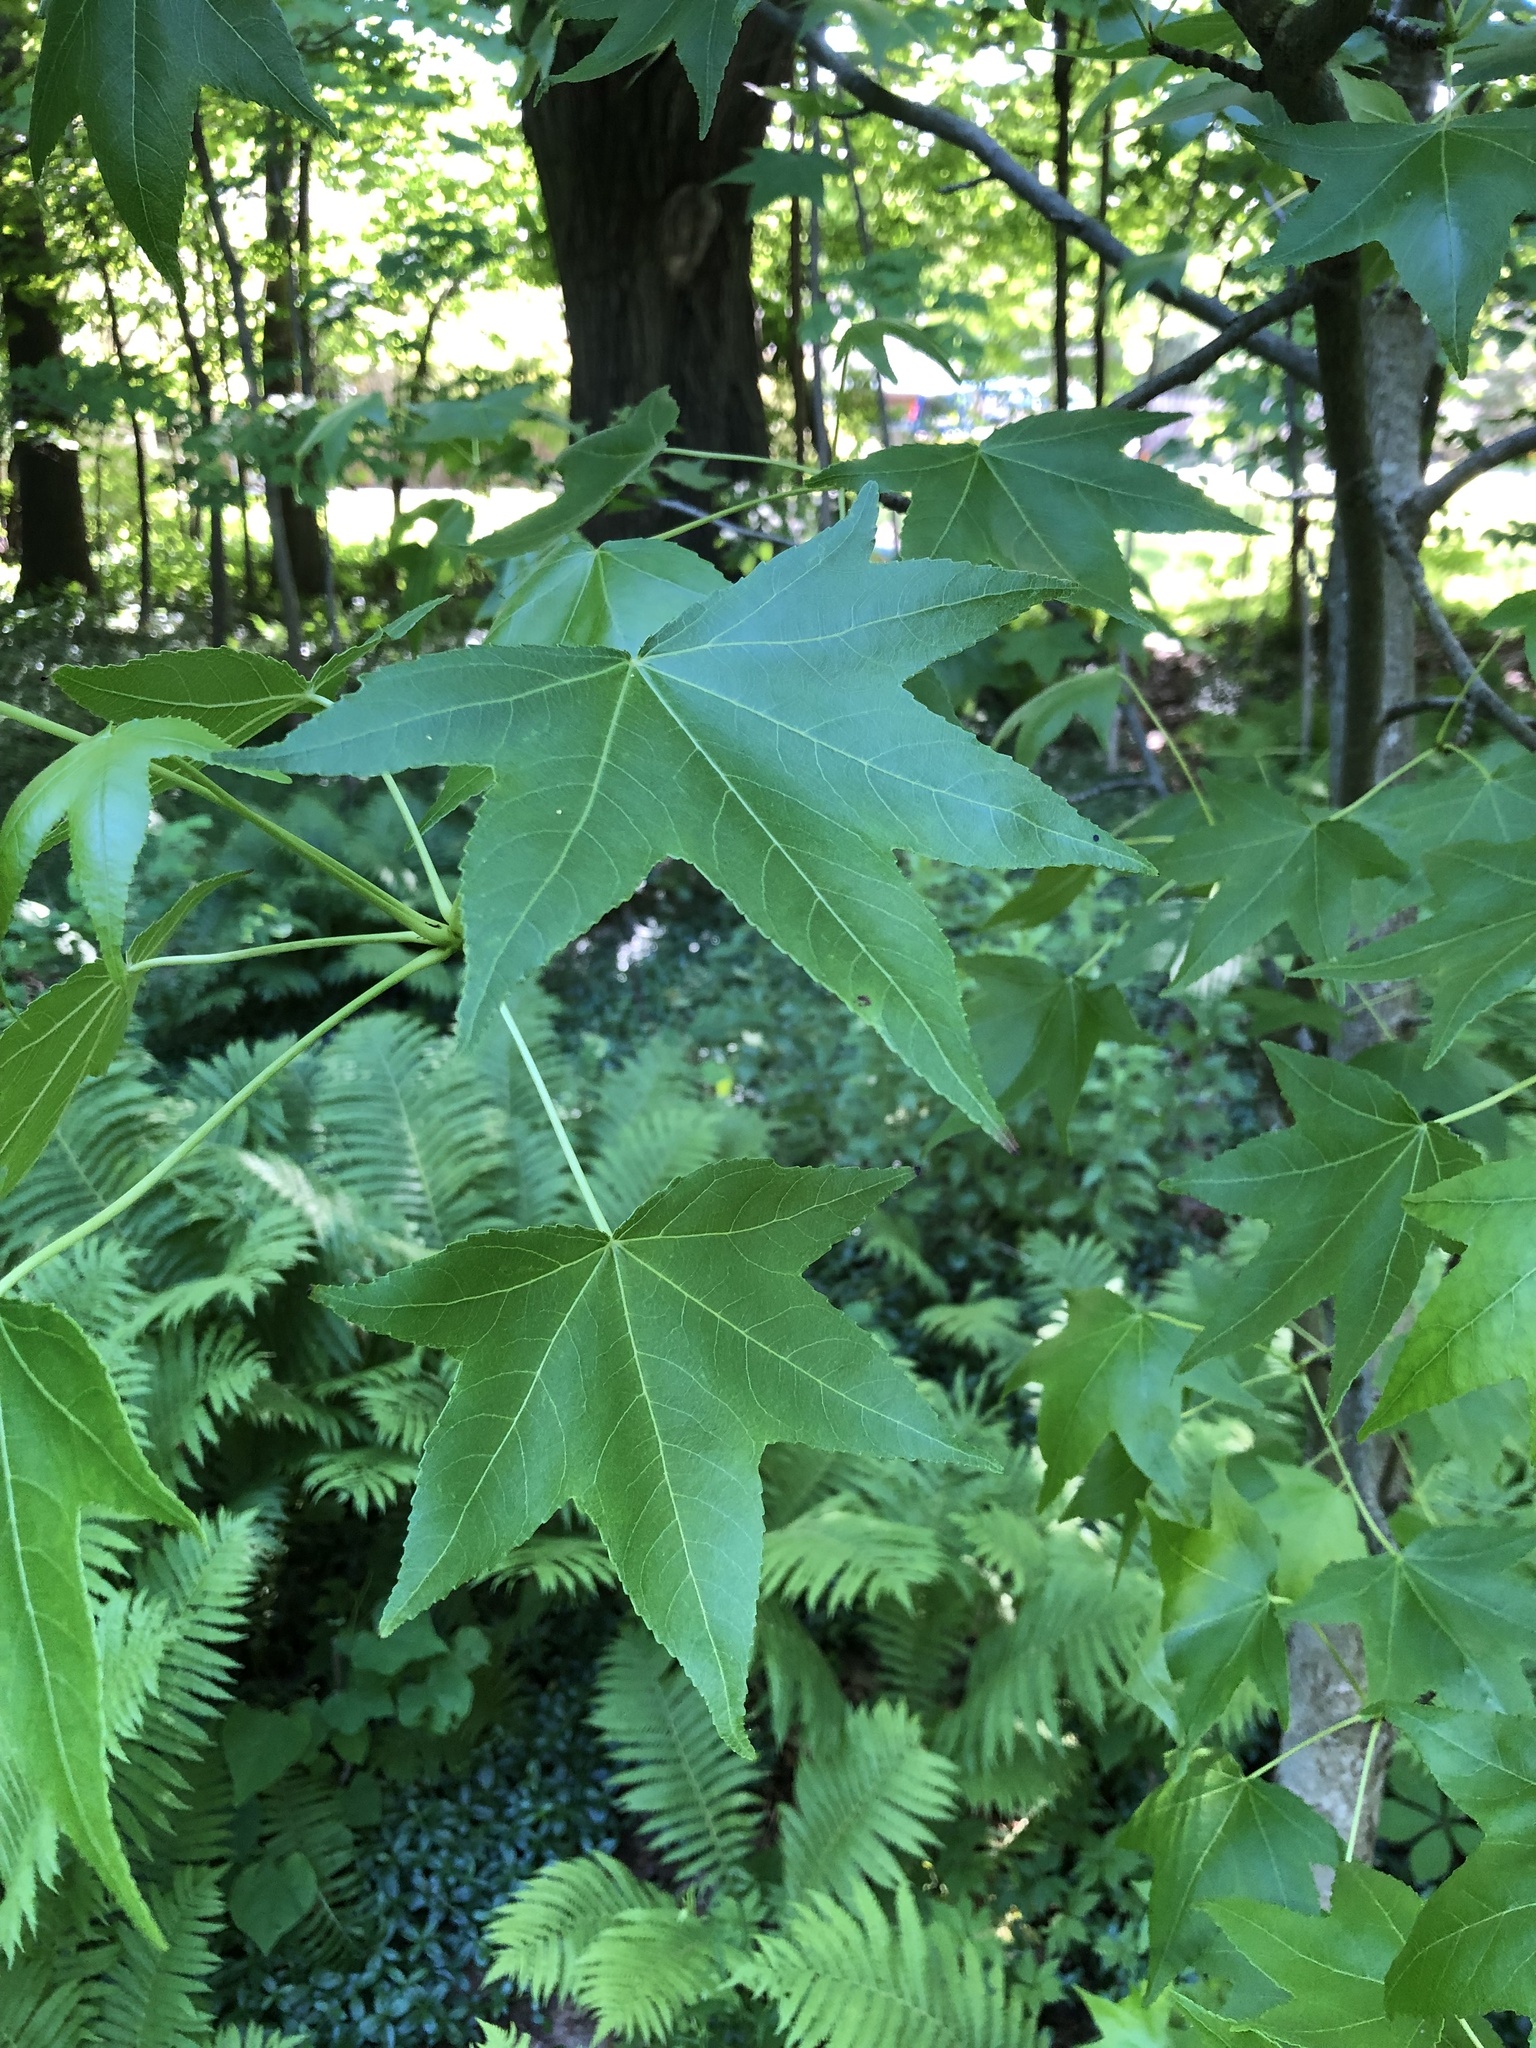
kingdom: Plantae
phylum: Tracheophyta
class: Magnoliopsida
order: Saxifragales
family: Altingiaceae
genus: Liquidambar
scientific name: Liquidambar styraciflua
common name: Sweet gum
